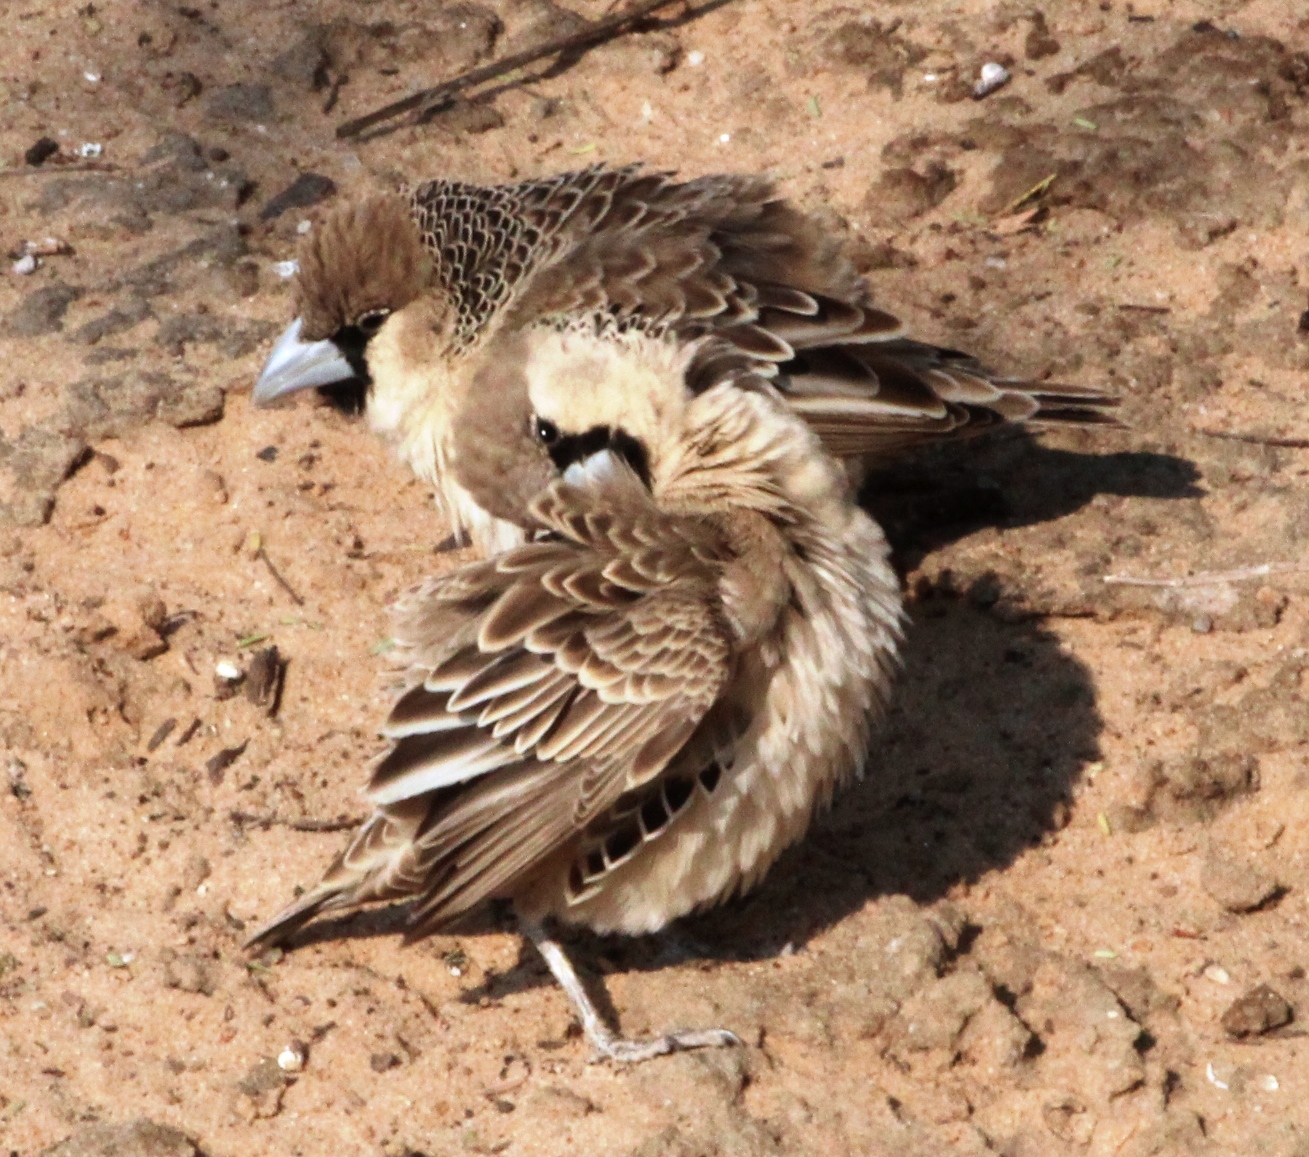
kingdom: Animalia
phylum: Chordata
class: Aves
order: Passeriformes
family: Passeridae
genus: Philetairus
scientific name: Philetairus socius
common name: Sociable weaver
